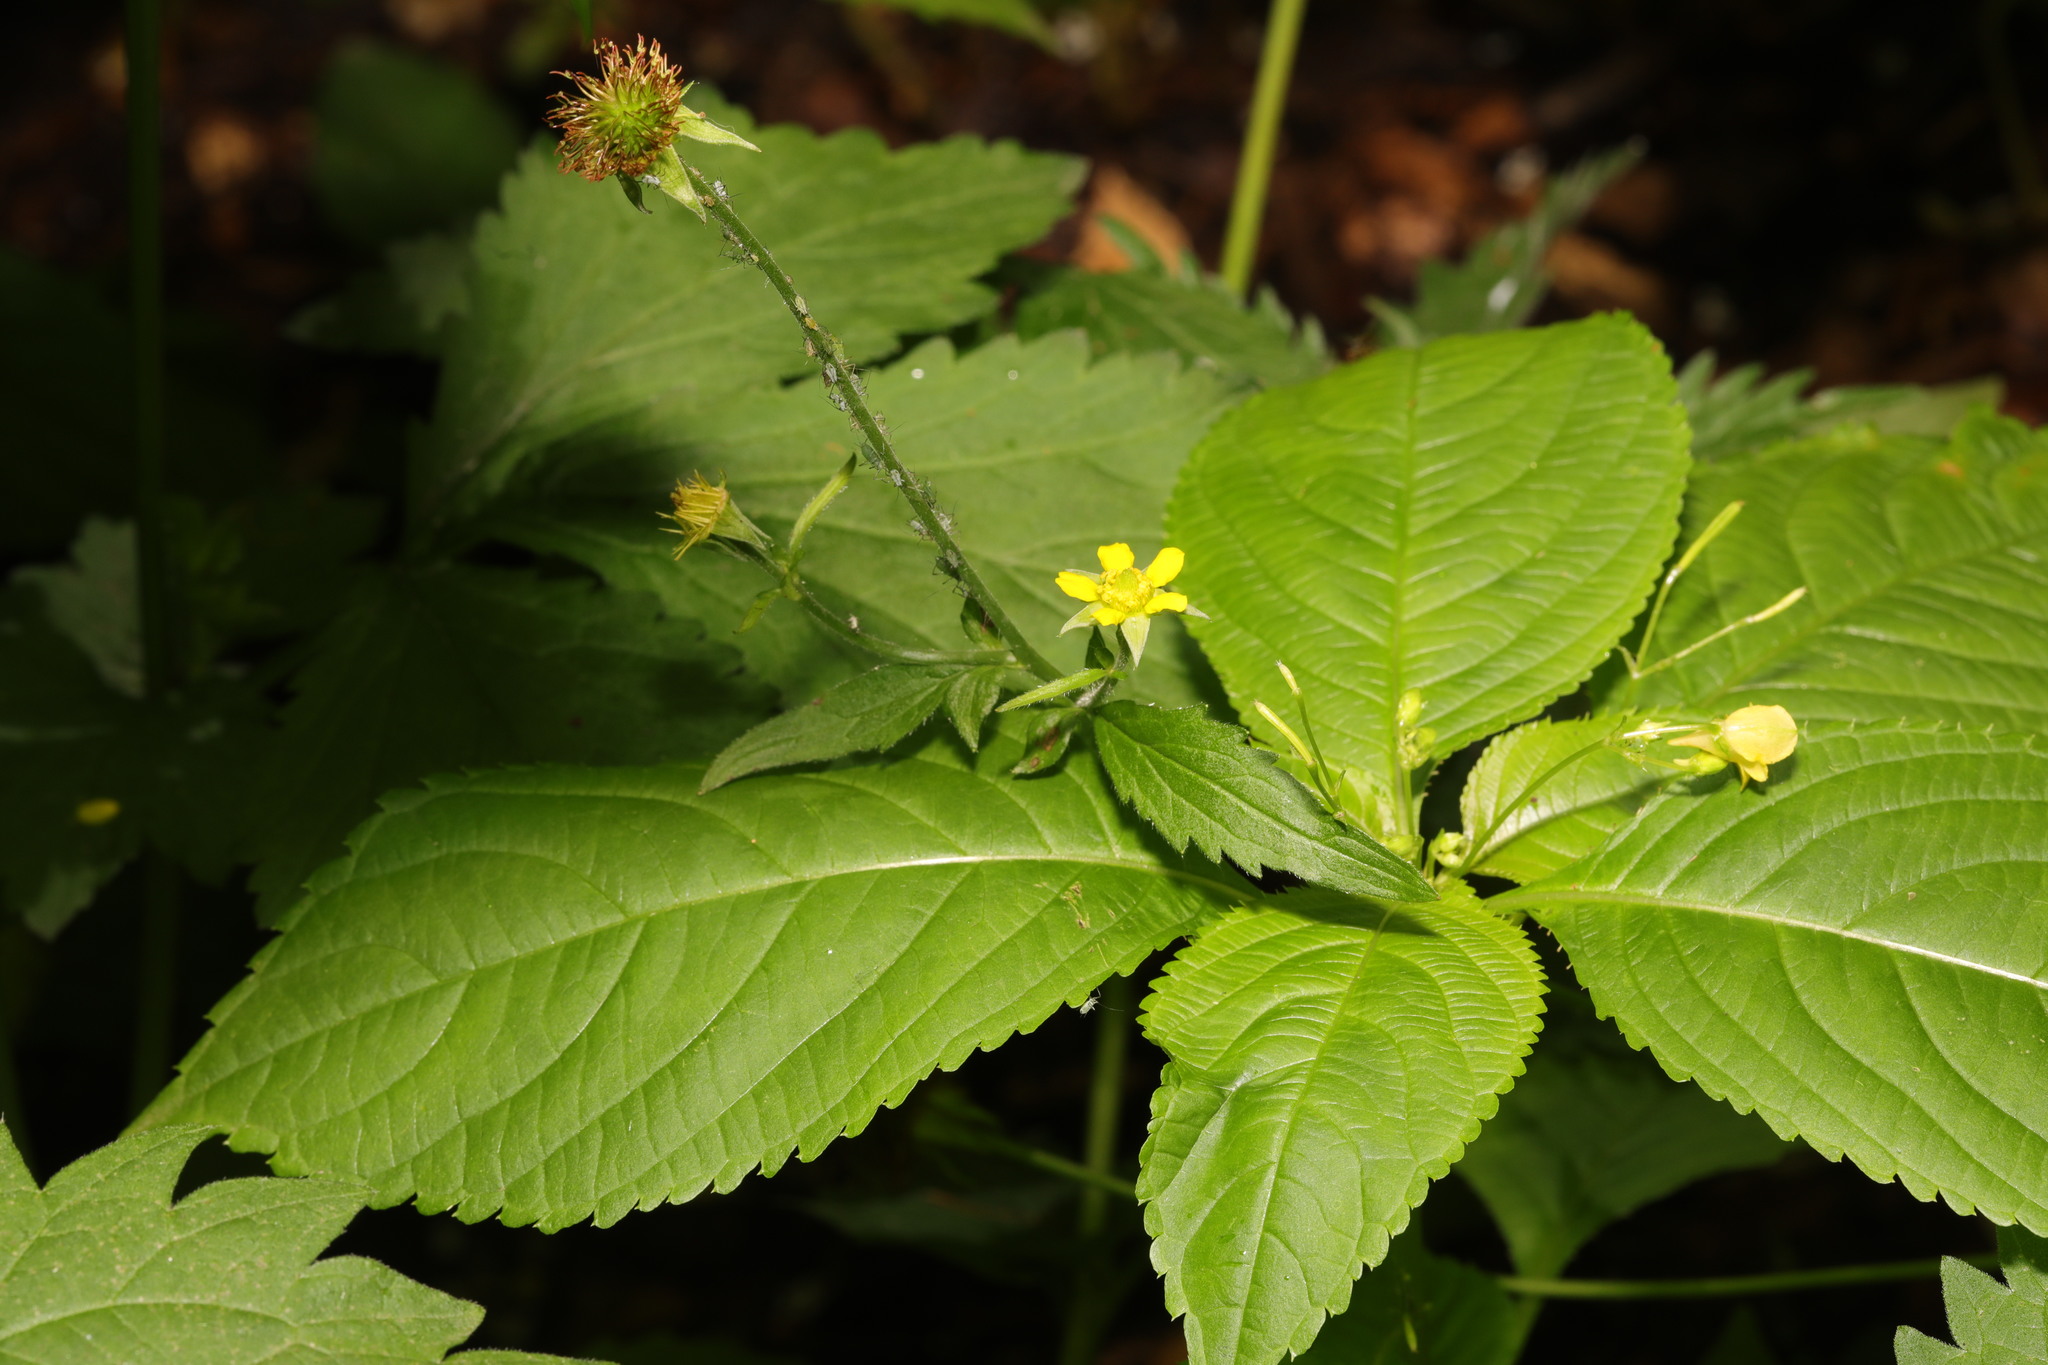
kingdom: Plantae
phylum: Tracheophyta
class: Magnoliopsida
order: Ericales
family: Balsaminaceae
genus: Impatiens
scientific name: Impatiens parviflora
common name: Small balsam
